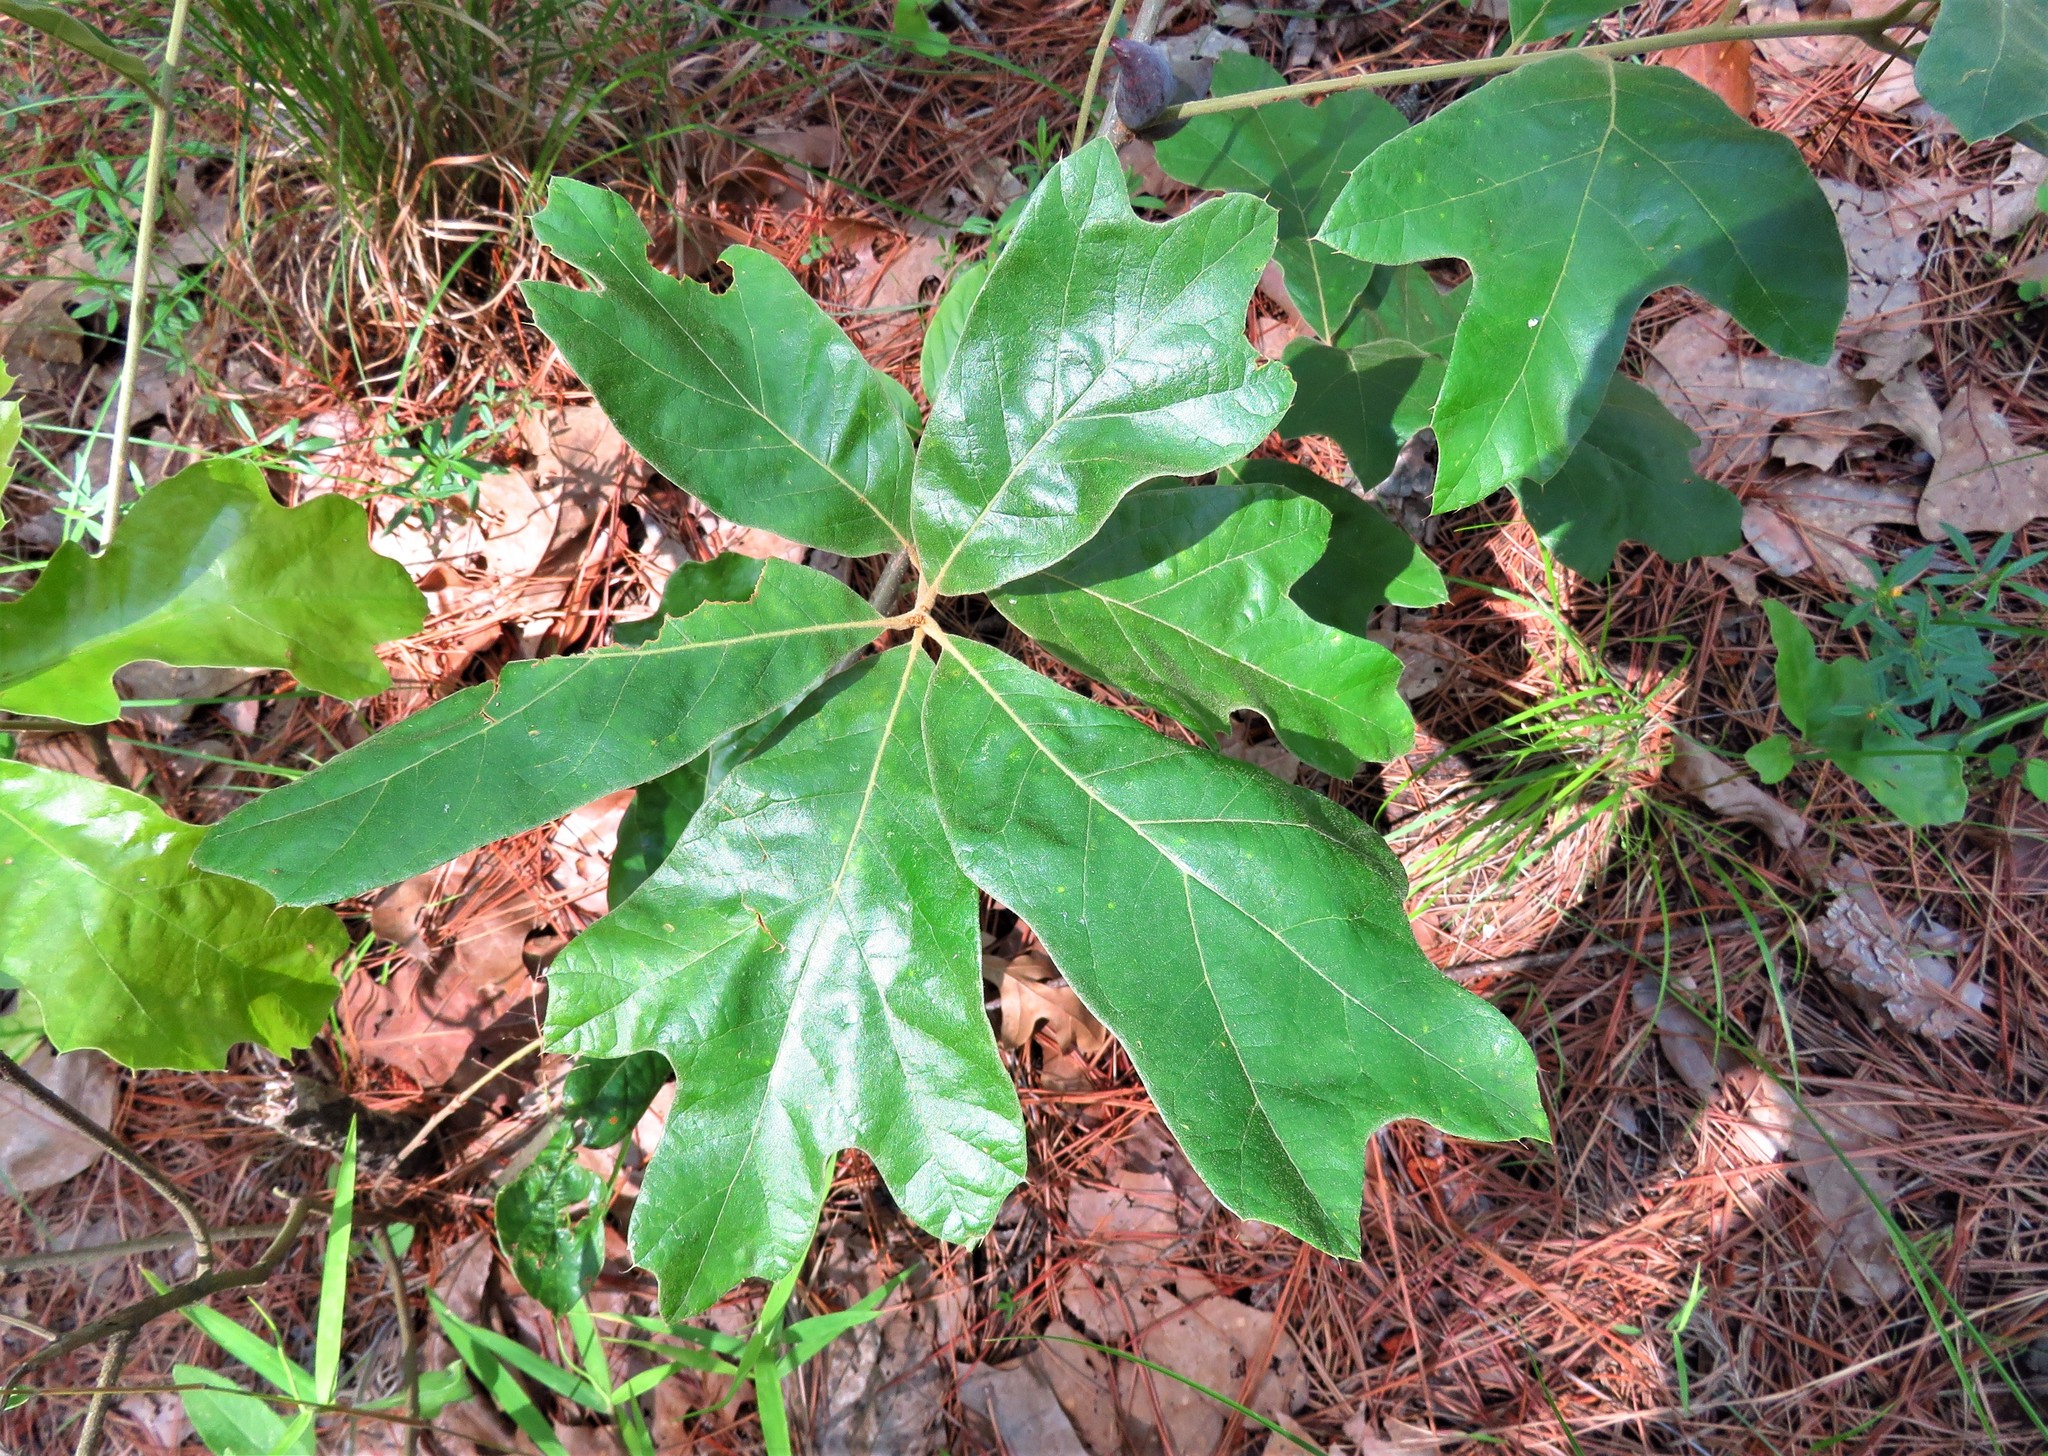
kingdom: Plantae
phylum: Tracheophyta
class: Magnoliopsida
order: Fagales
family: Fagaceae
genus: Quercus
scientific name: Quercus nigra
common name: Water oak
